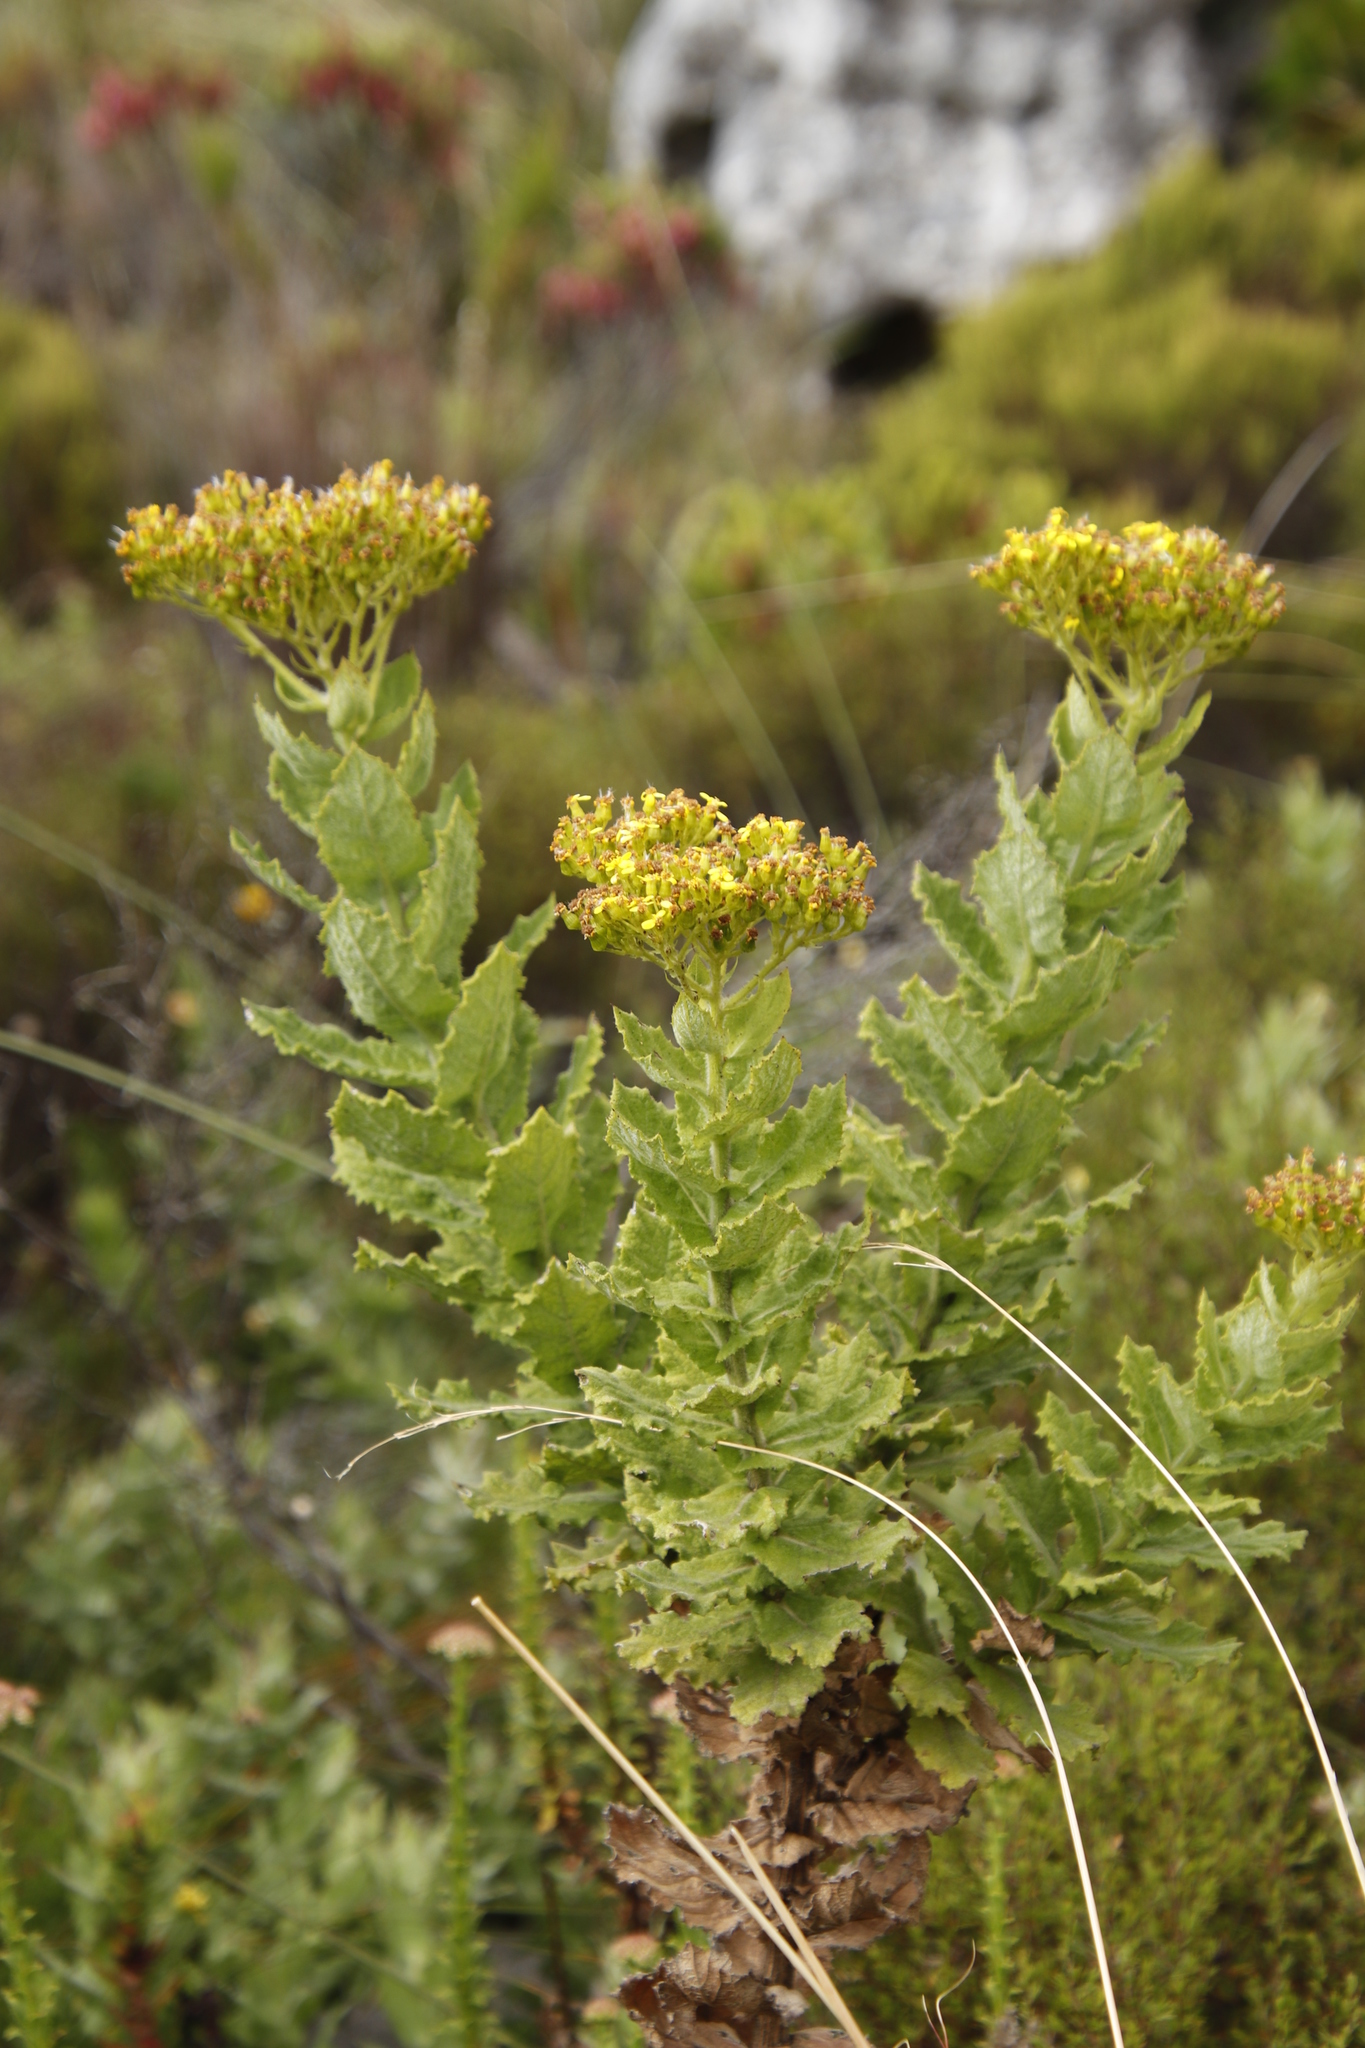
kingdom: Plantae
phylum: Tracheophyta
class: Magnoliopsida
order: Asterales
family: Asteraceae
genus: Senecio
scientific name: Senecio rigidus
